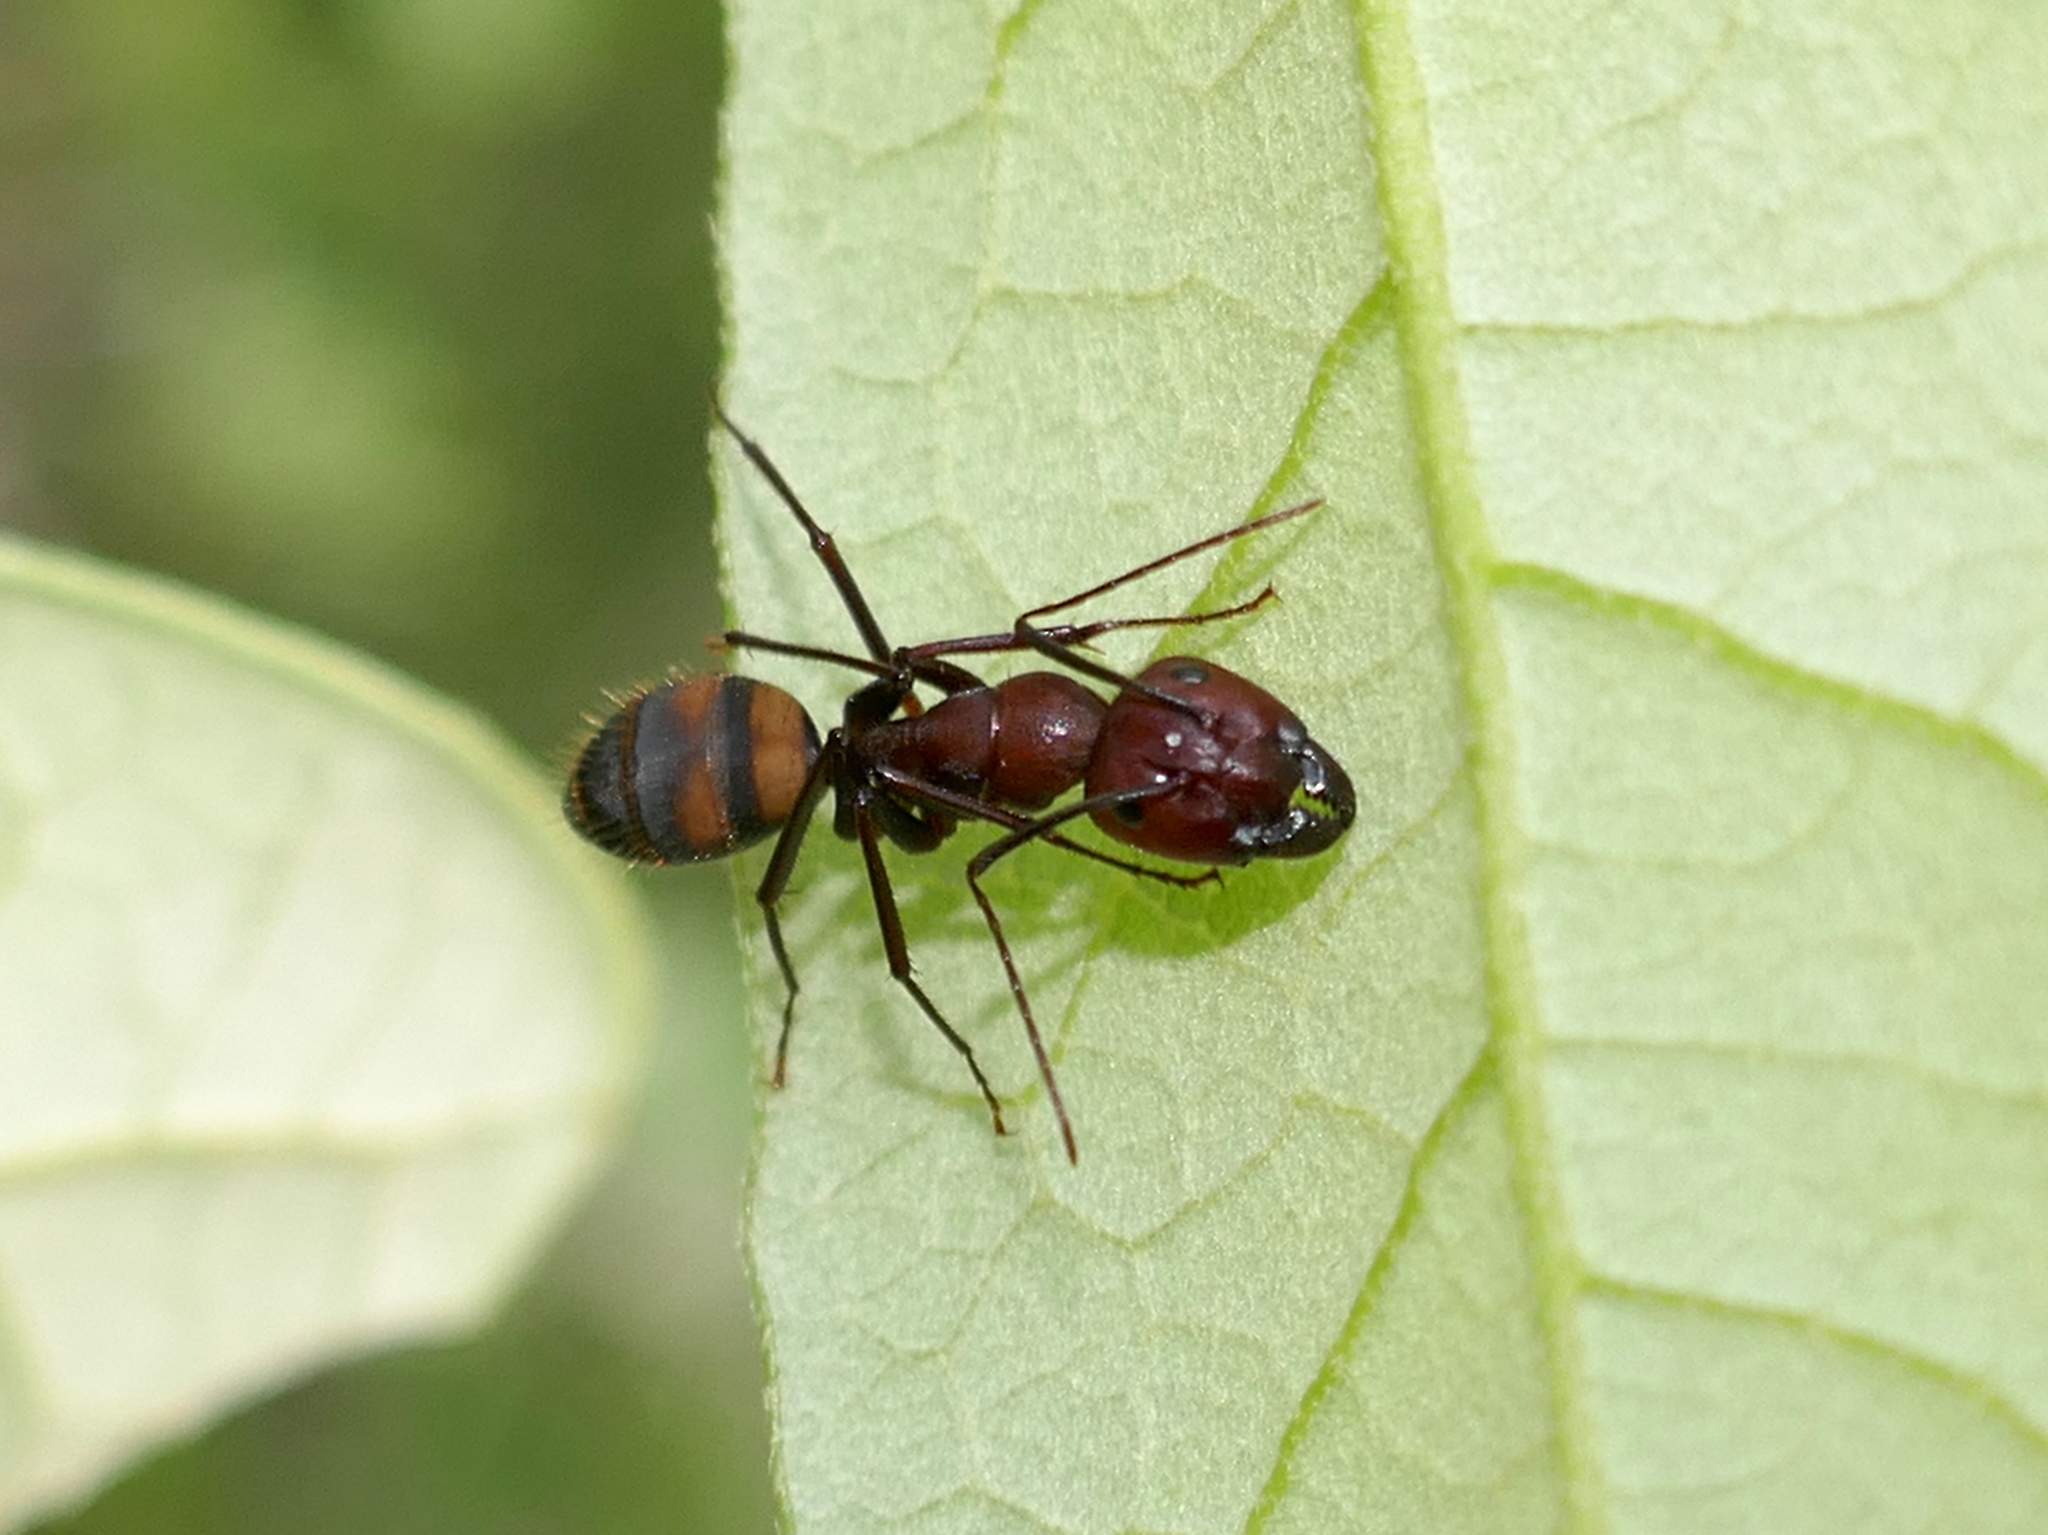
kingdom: Animalia
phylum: Arthropoda
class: Insecta
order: Hymenoptera
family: Formicidae
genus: Camponotus
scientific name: Camponotus socius
